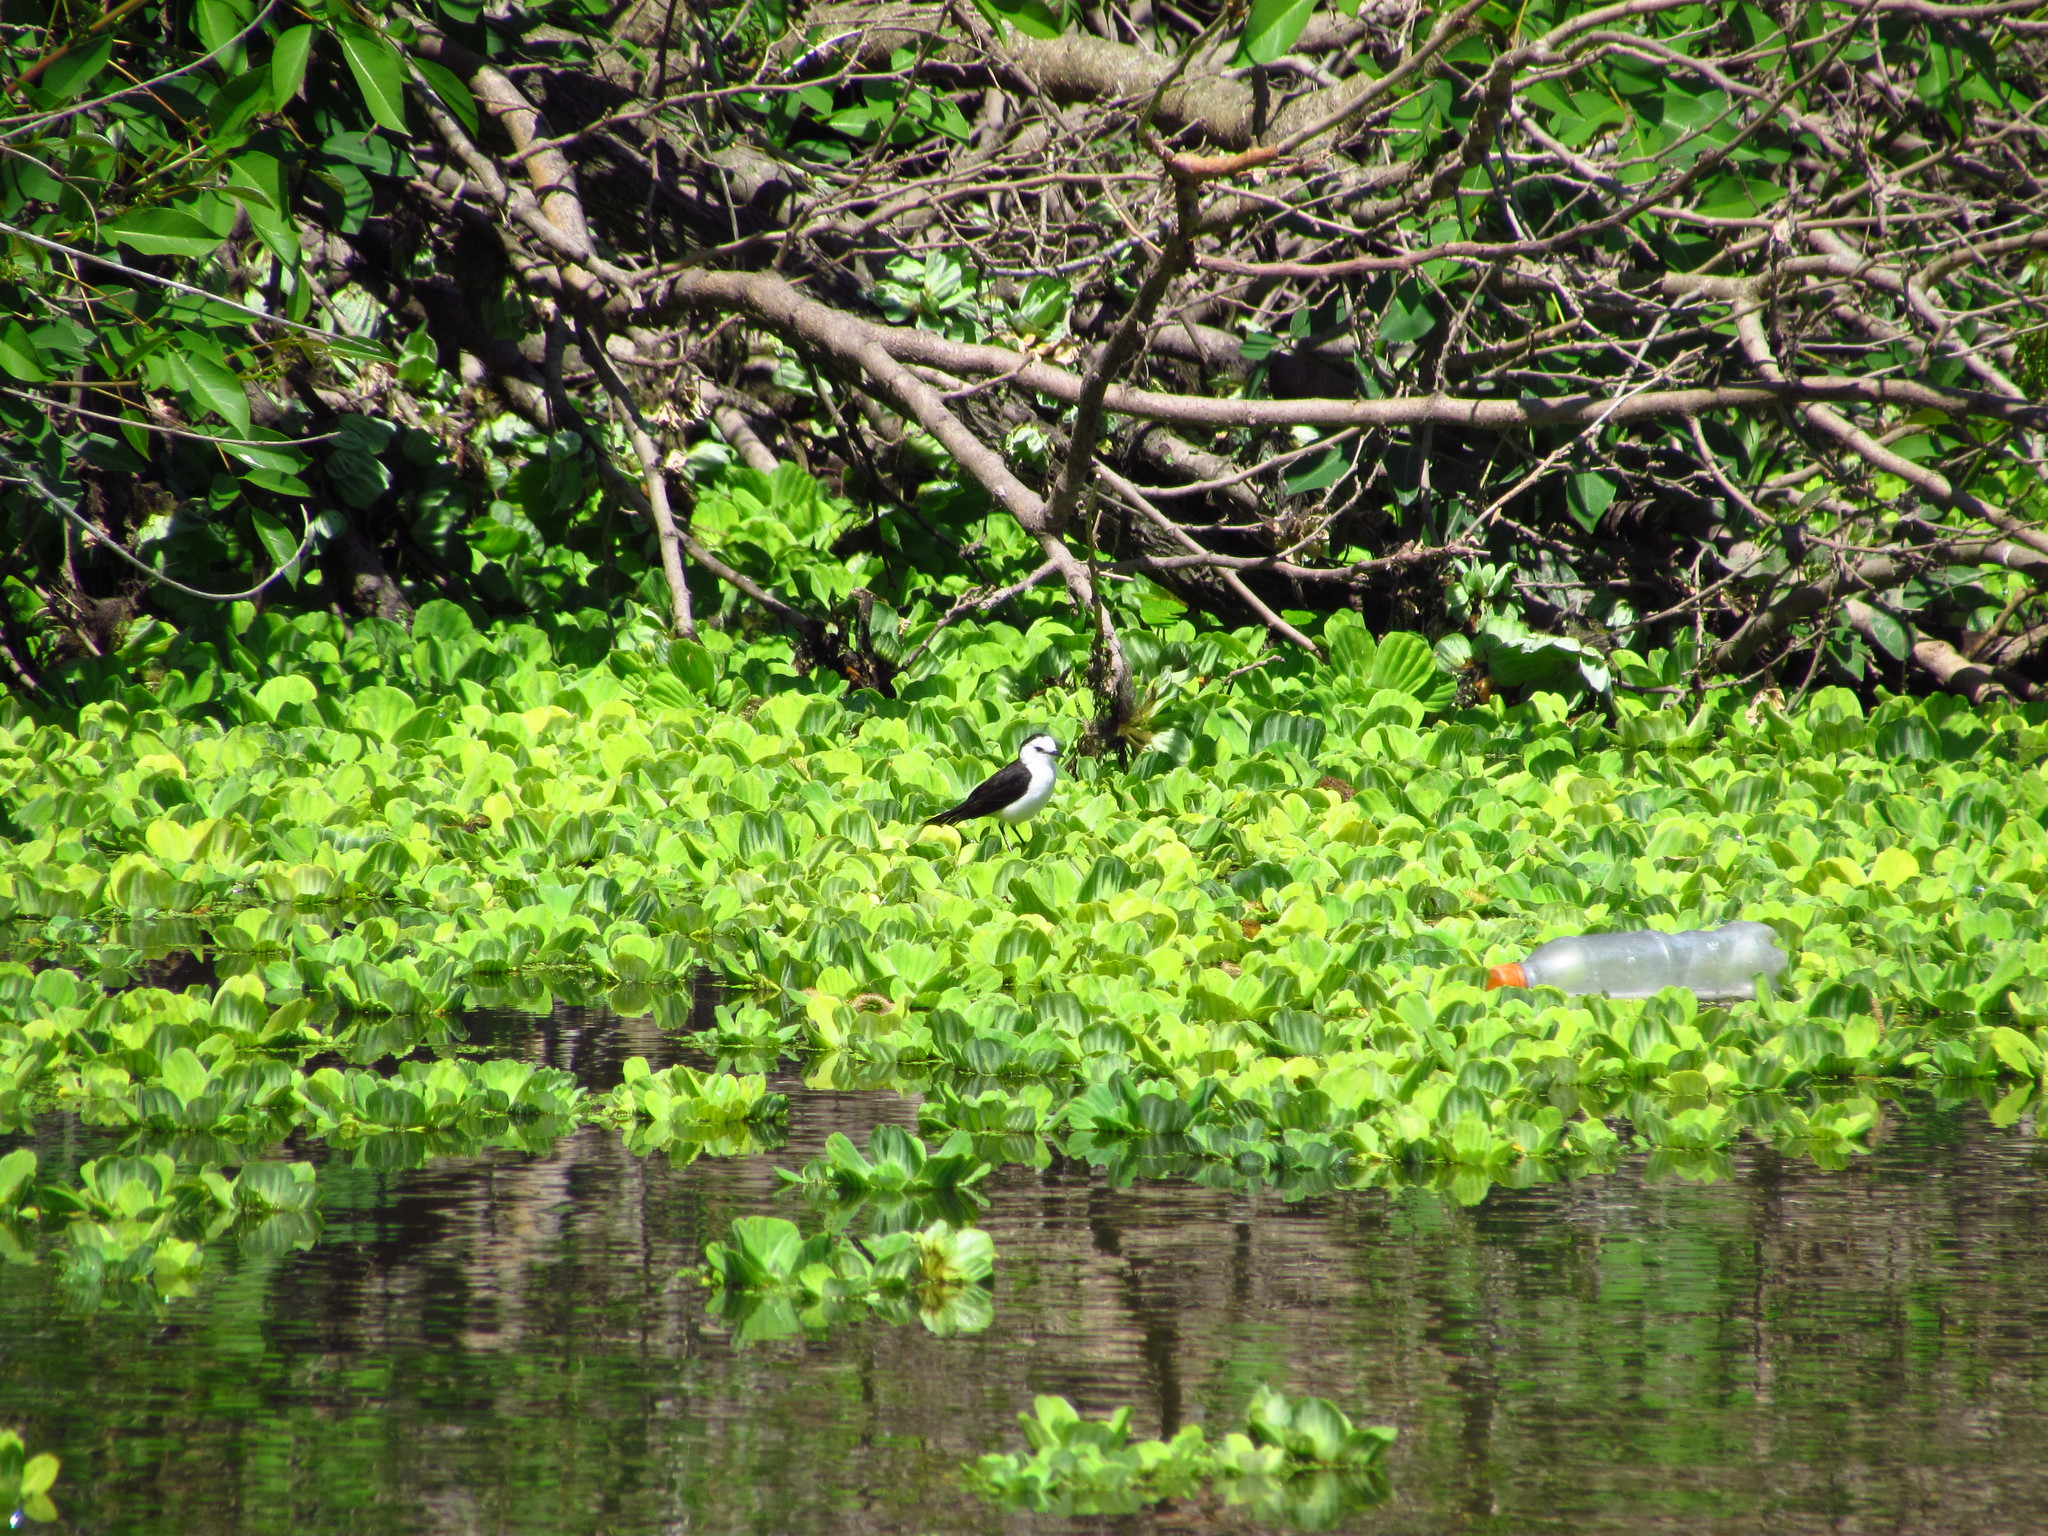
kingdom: Animalia
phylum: Chordata
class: Aves
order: Passeriformes
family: Tyrannidae
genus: Fluvicola
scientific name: Fluvicola pica
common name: Pied water-tyrant
